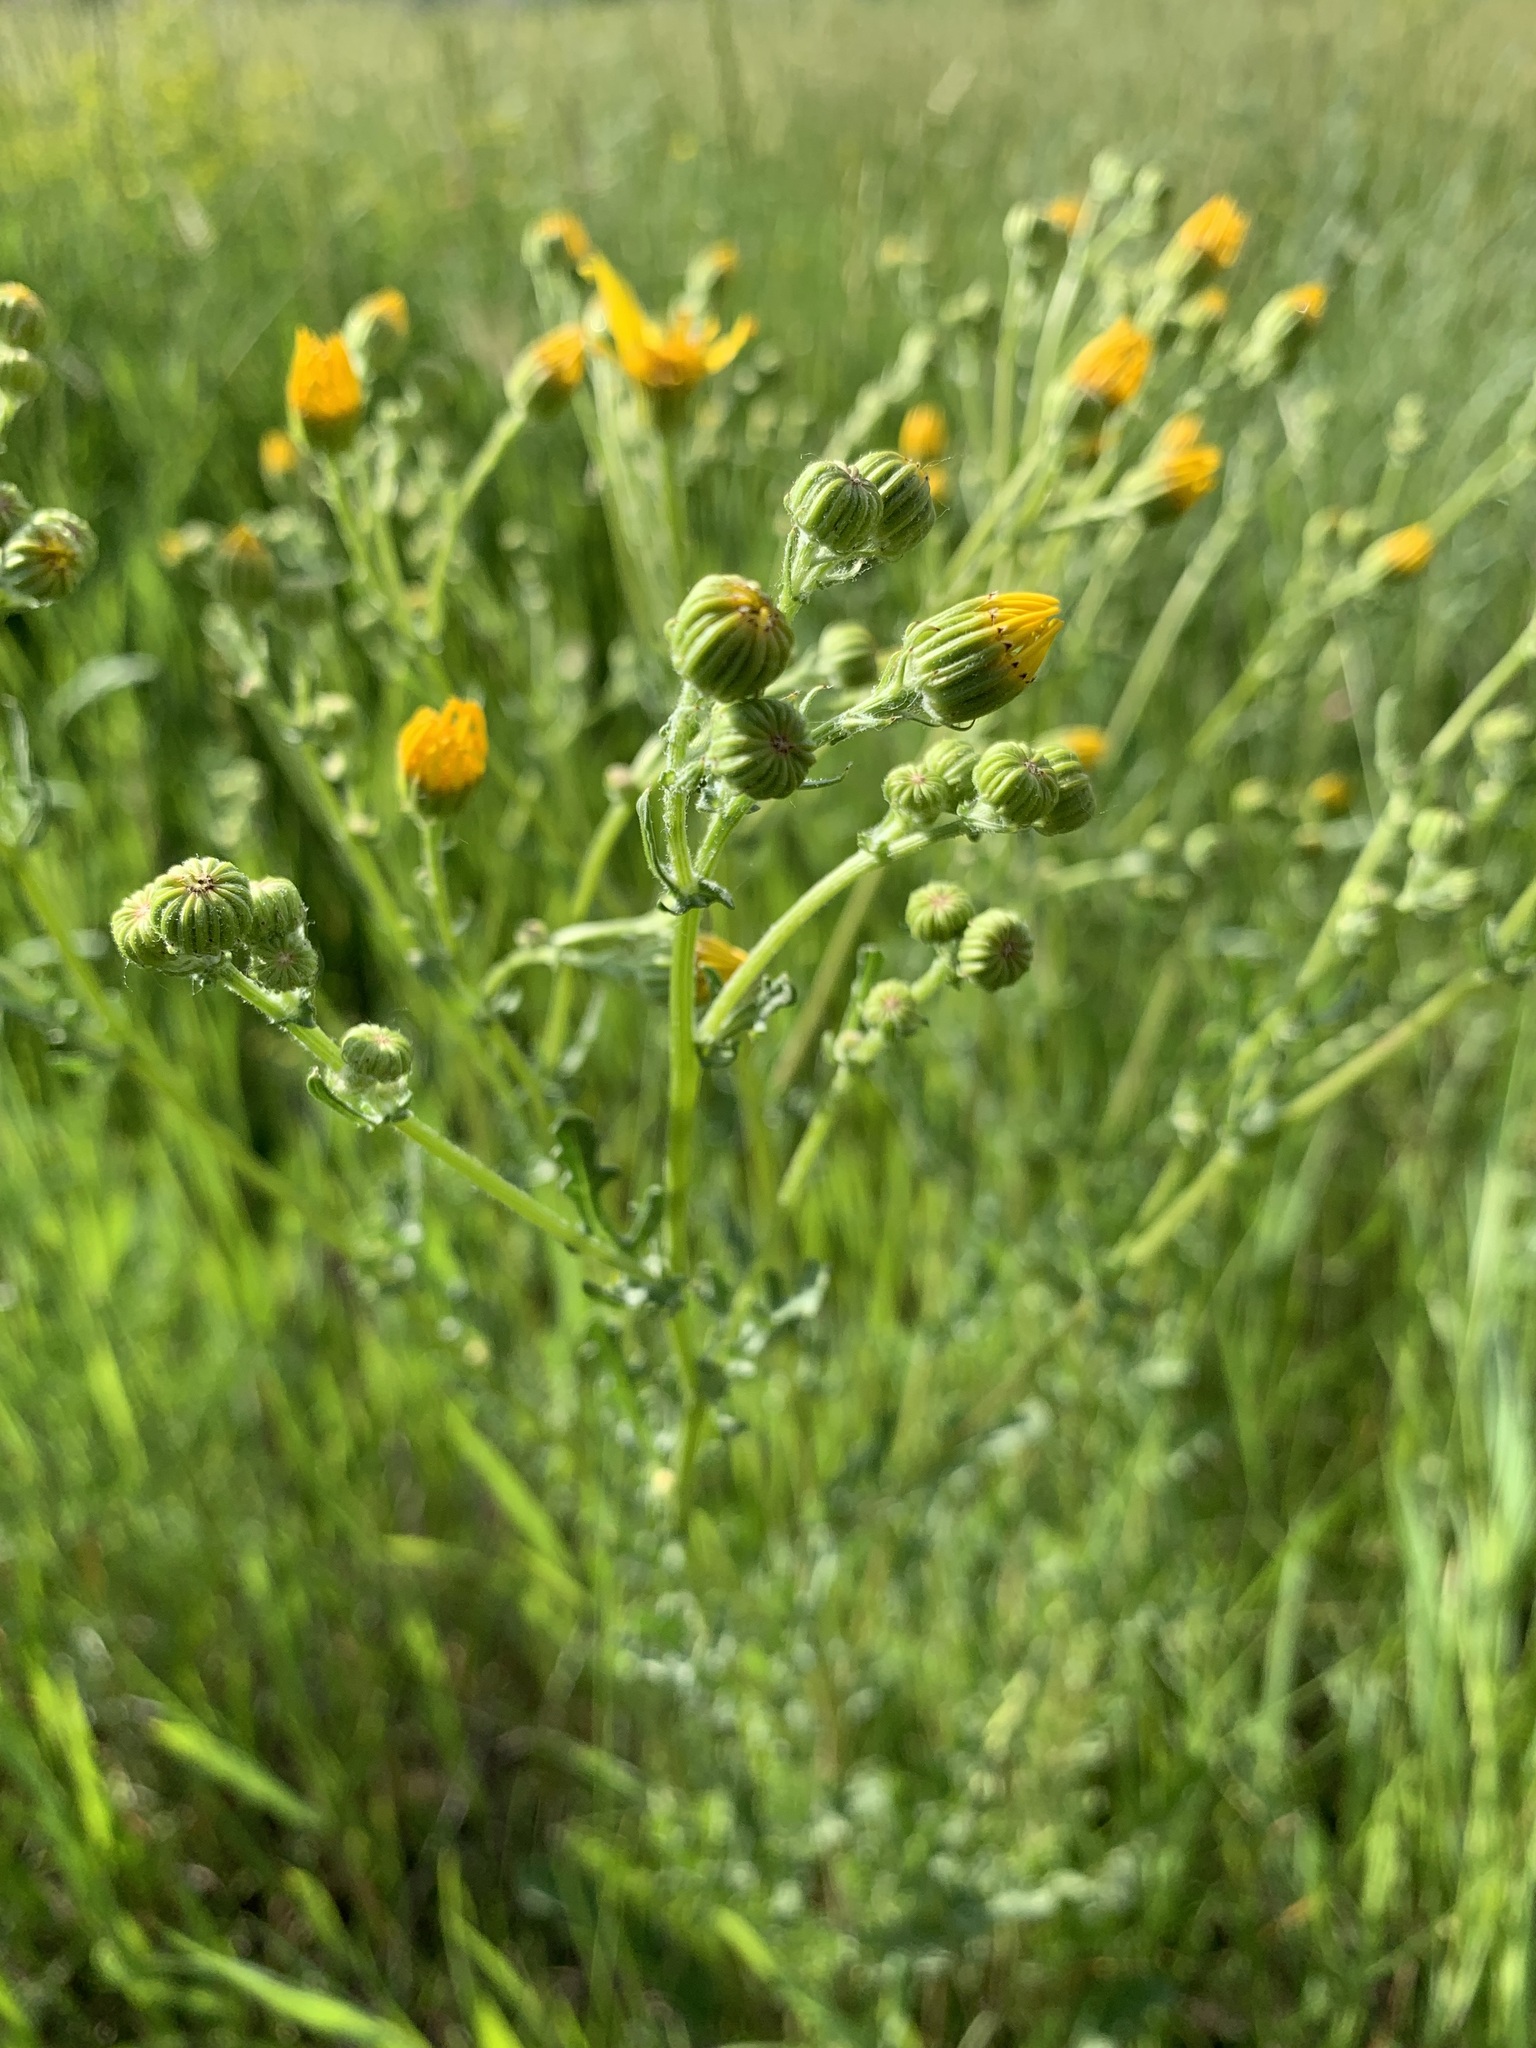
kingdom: Plantae
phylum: Tracheophyta
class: Magnoliopsida
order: Asterales
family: Asteraceae
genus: Jacobaea
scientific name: Jacobaea ferganensis
